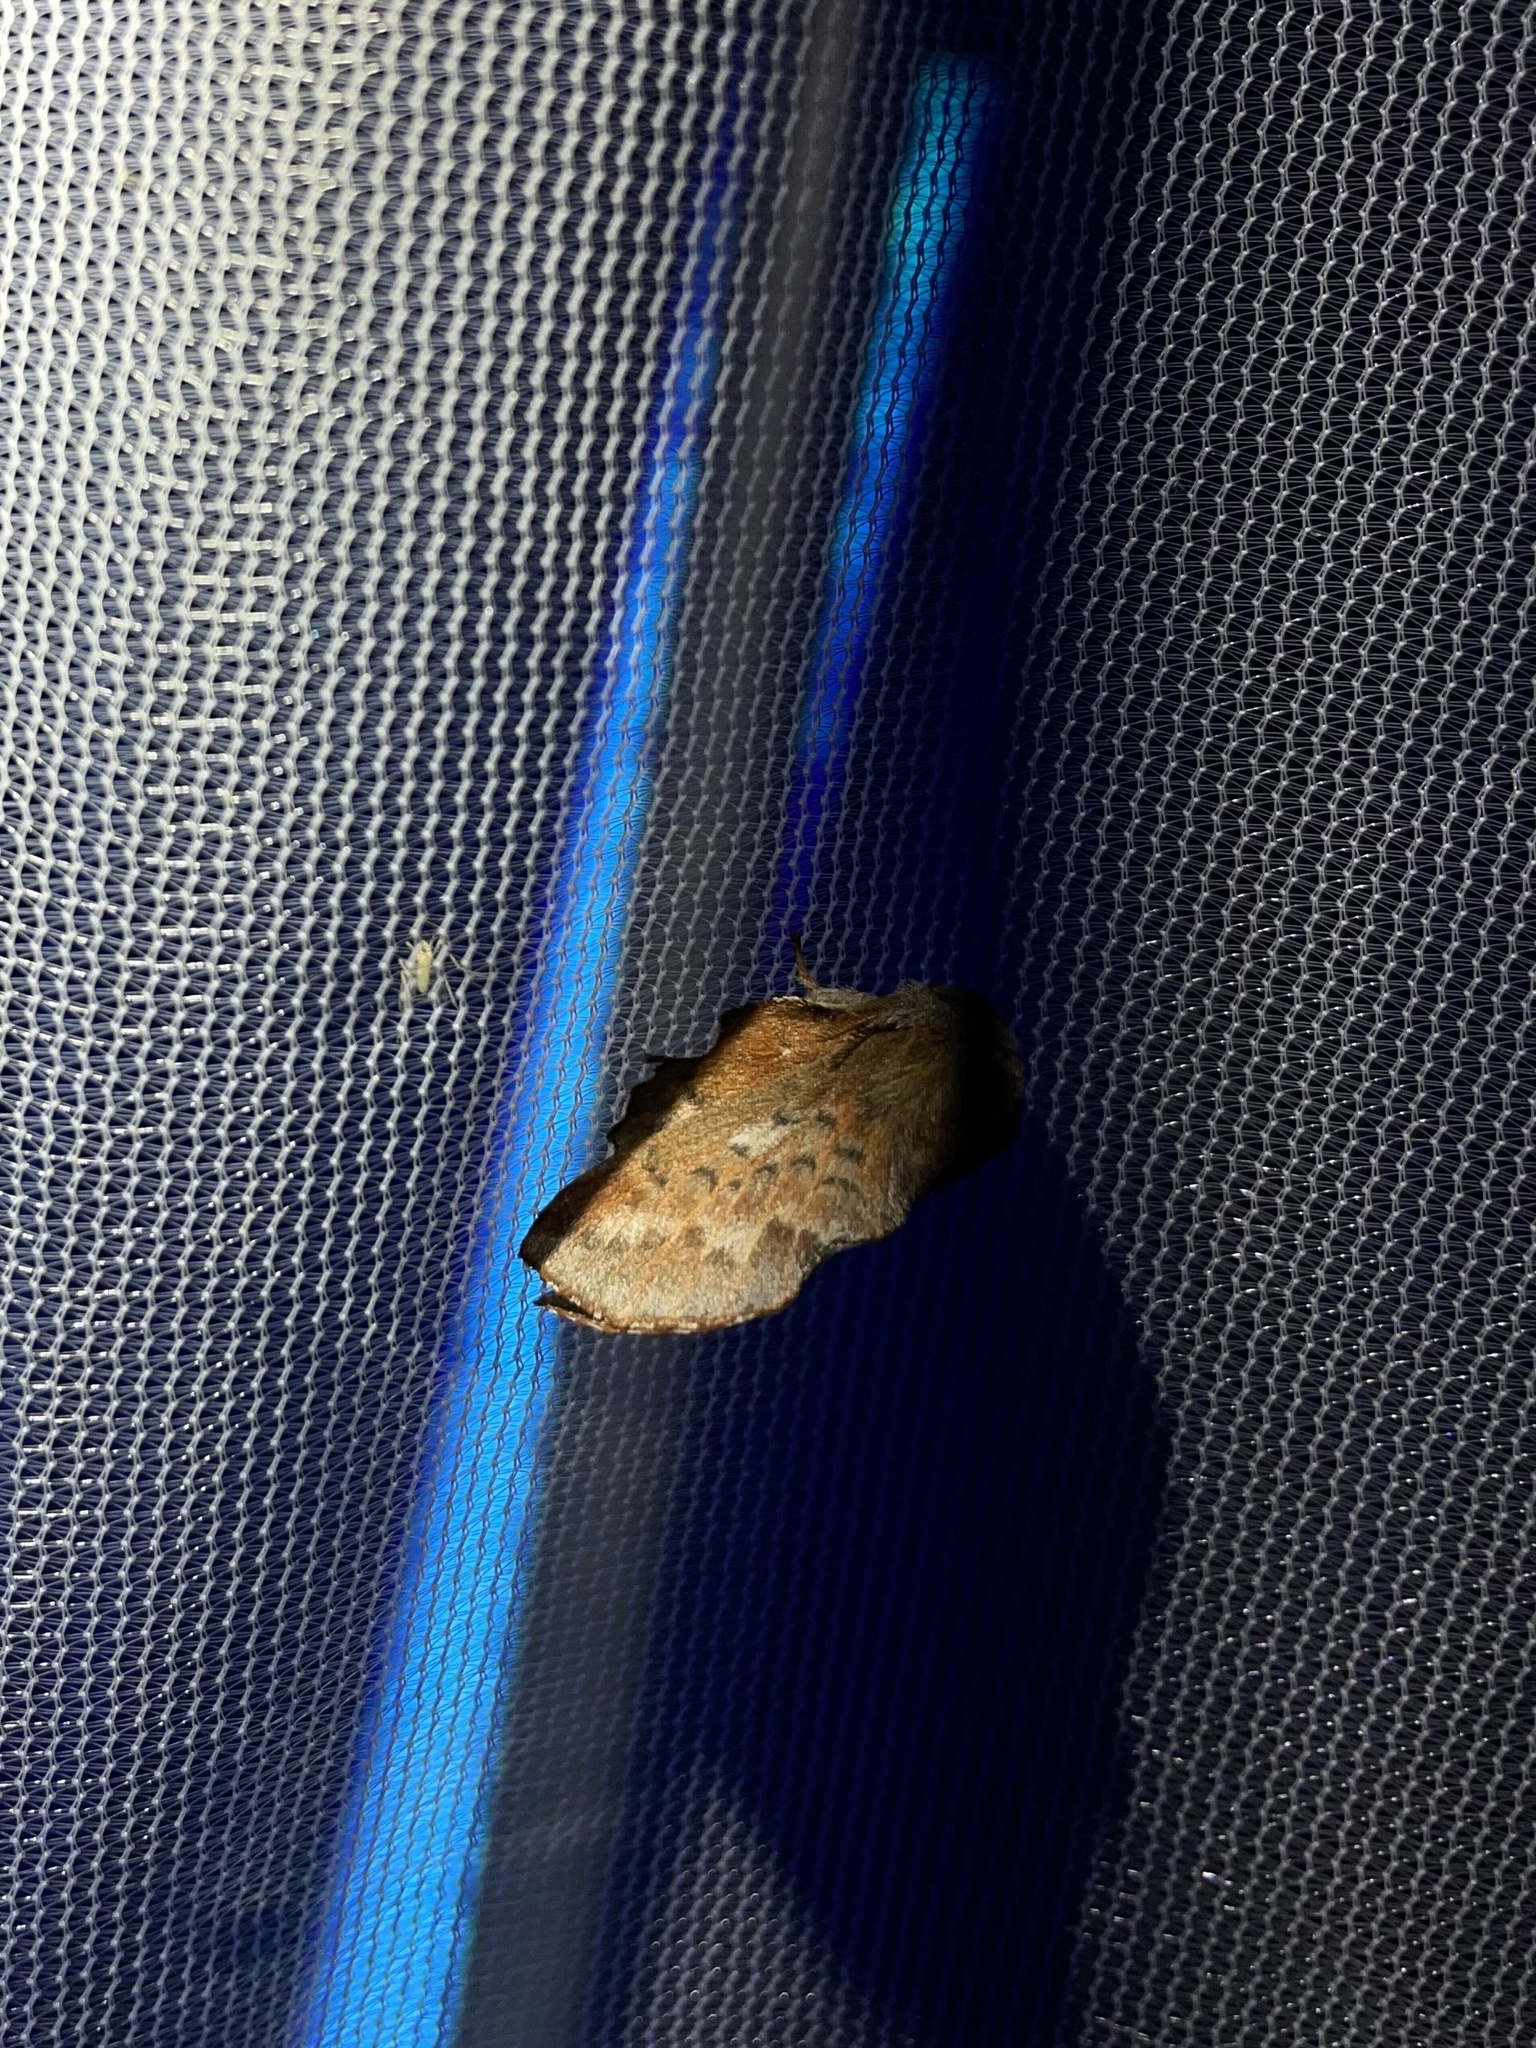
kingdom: Animalia
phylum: Arthropoda
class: Insecta
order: Lepidoptera
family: Lasiocampidae
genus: Phyllodesma
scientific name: Phyllodesma americana
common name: American lappet moth
